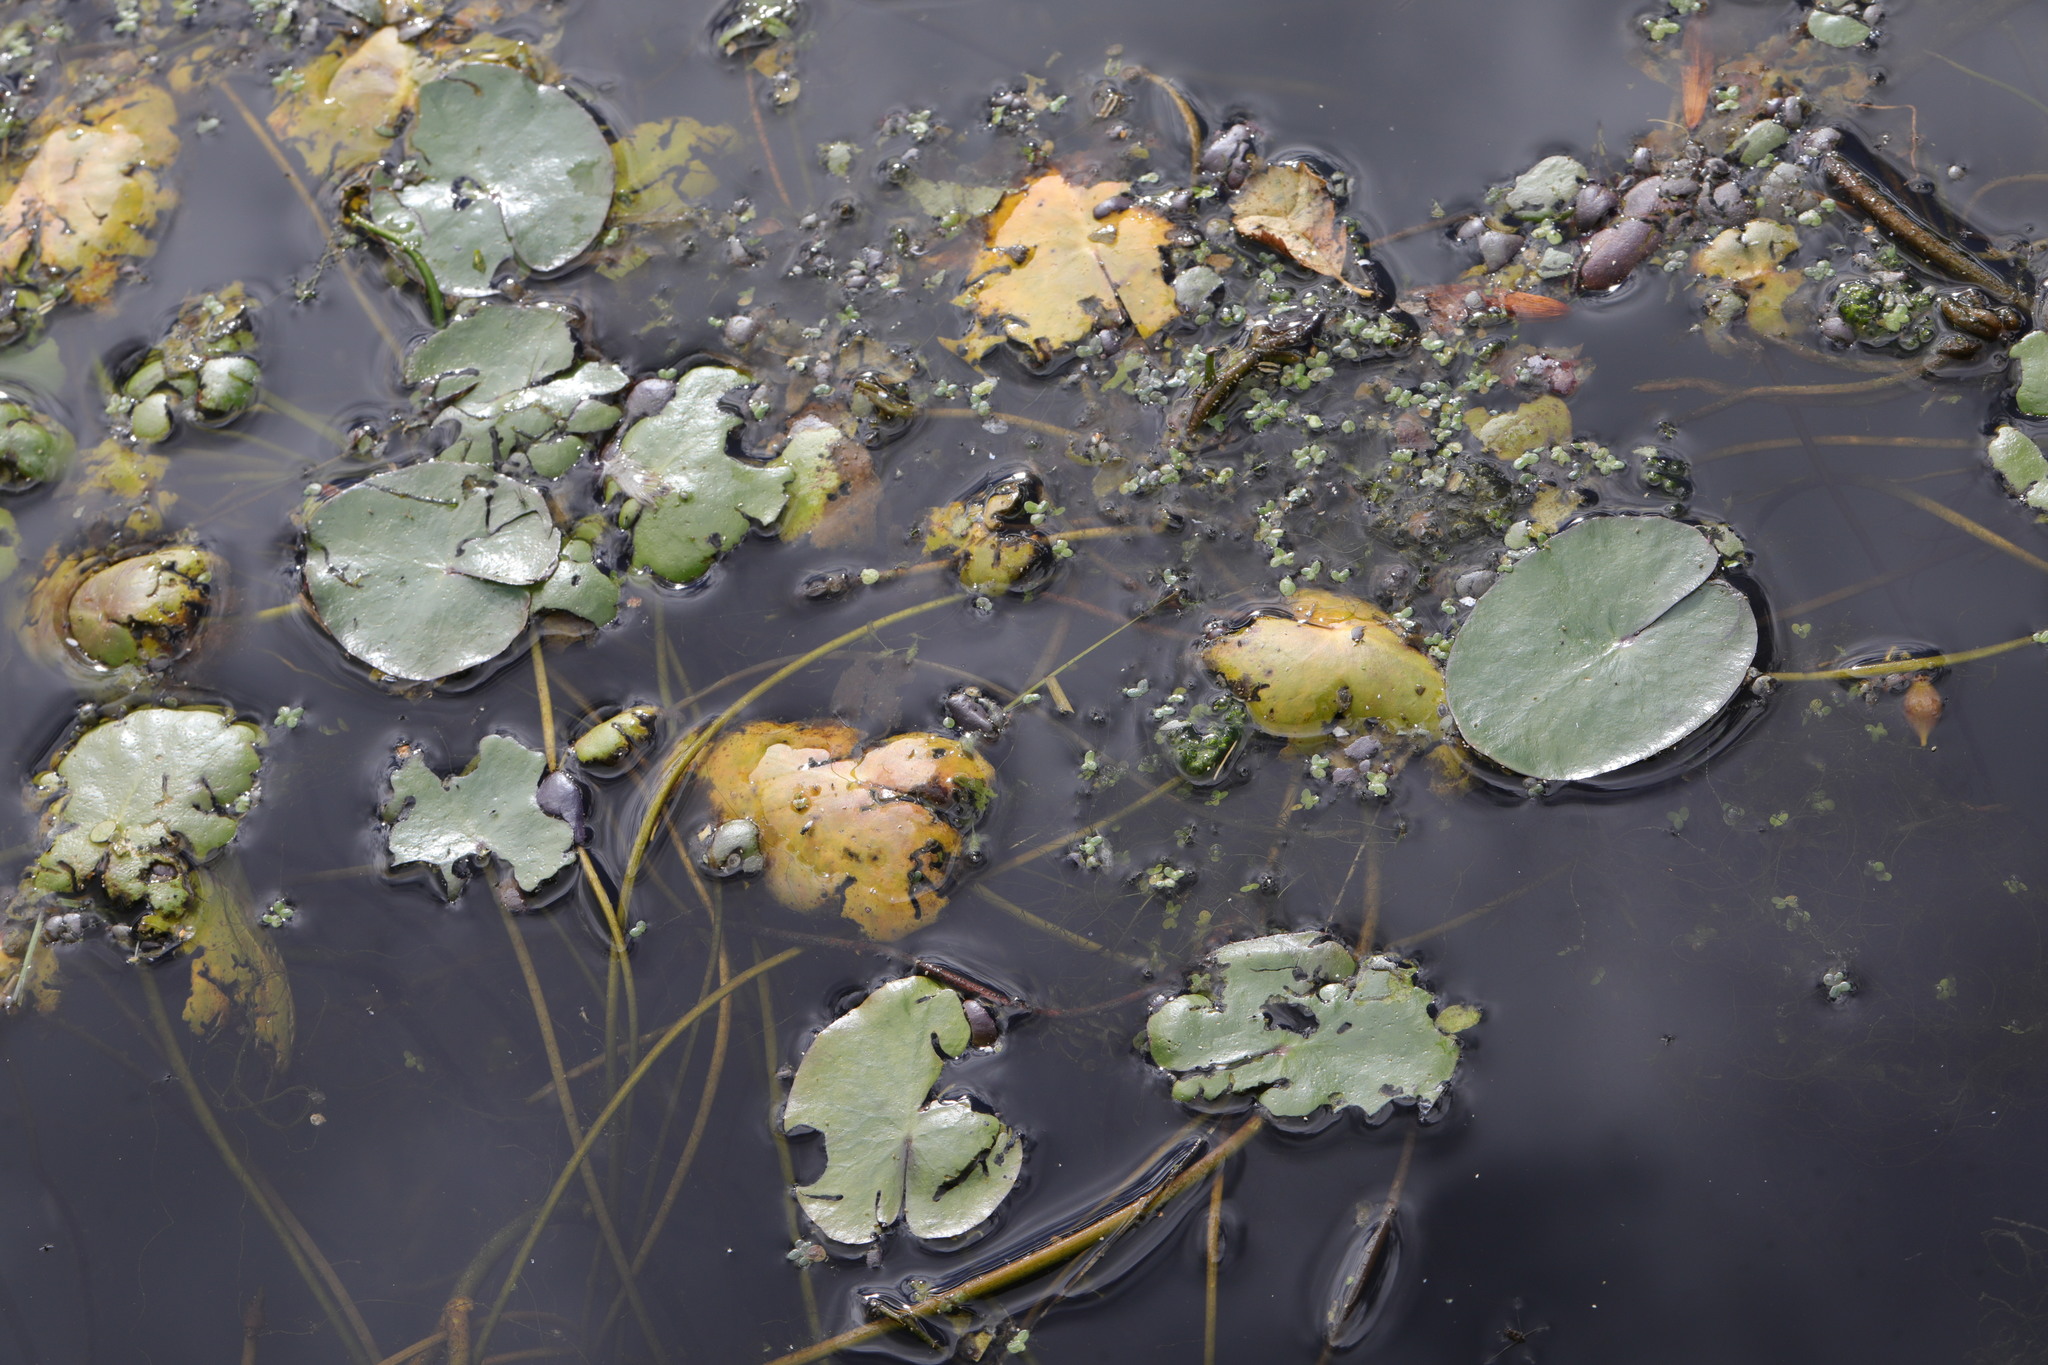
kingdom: Plantae
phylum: Tracheophyta
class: Magnoliopsida
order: Asterales
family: Menyanthaceae
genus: Nymphoides
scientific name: Nymphoides peltata
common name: Fringed water-lily
